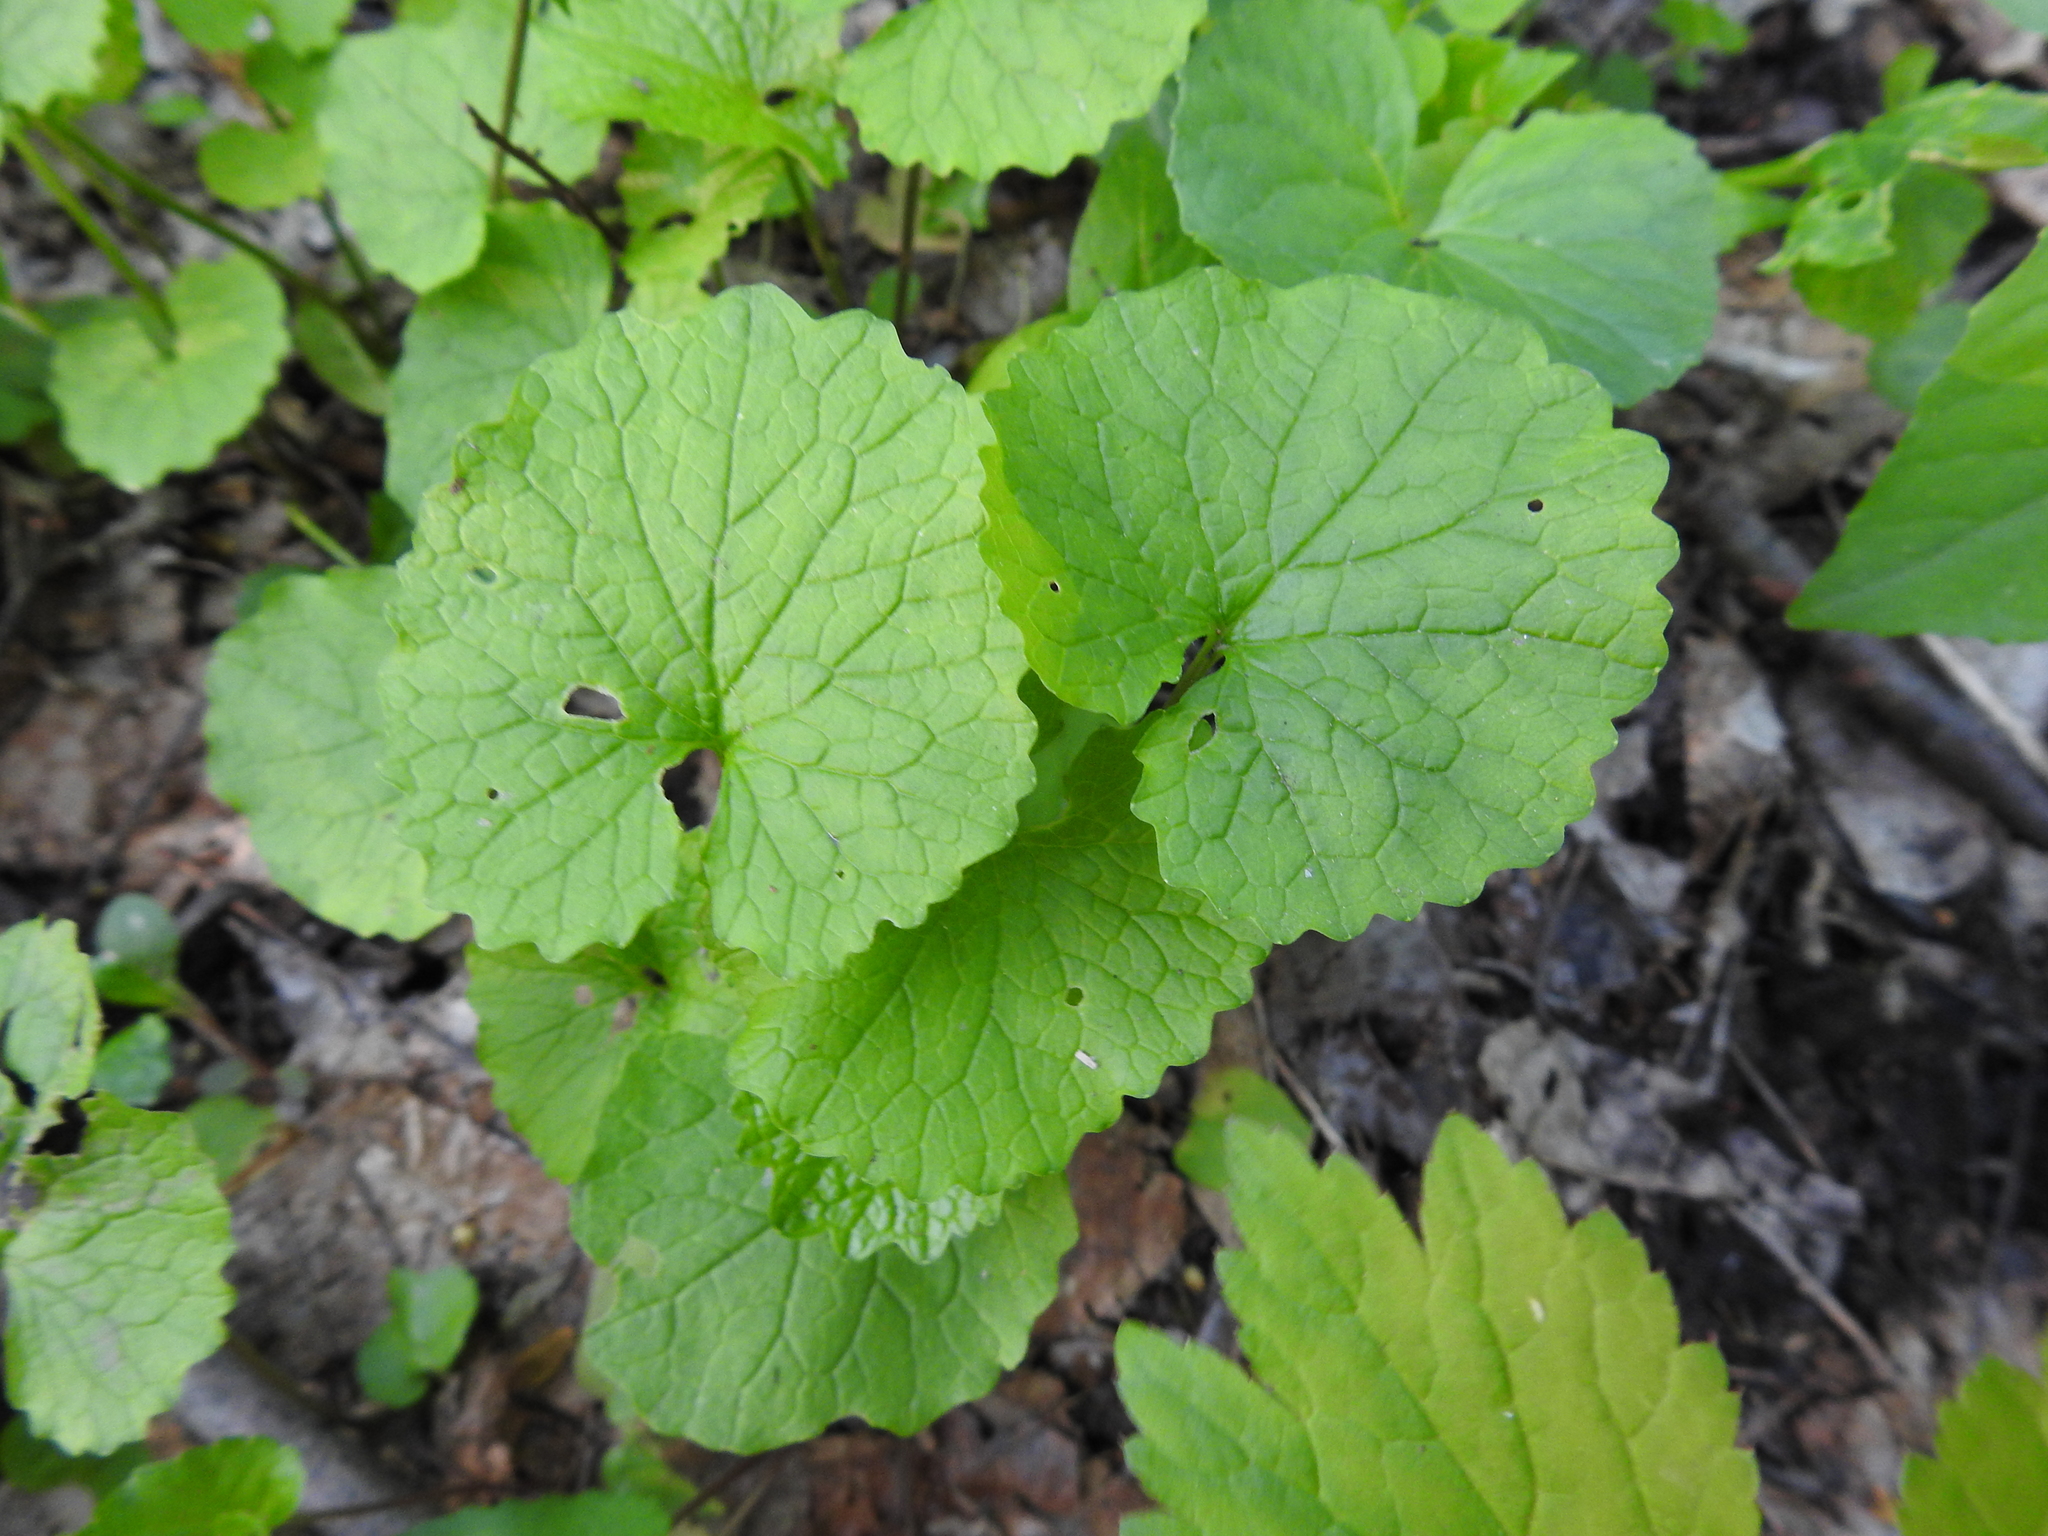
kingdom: Plantae
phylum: Tracheophyta
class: Magnoliopsida
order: Brassicales
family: Brassicaceae
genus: Alliaria
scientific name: Alliaria petiolata
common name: Garlic mustard
